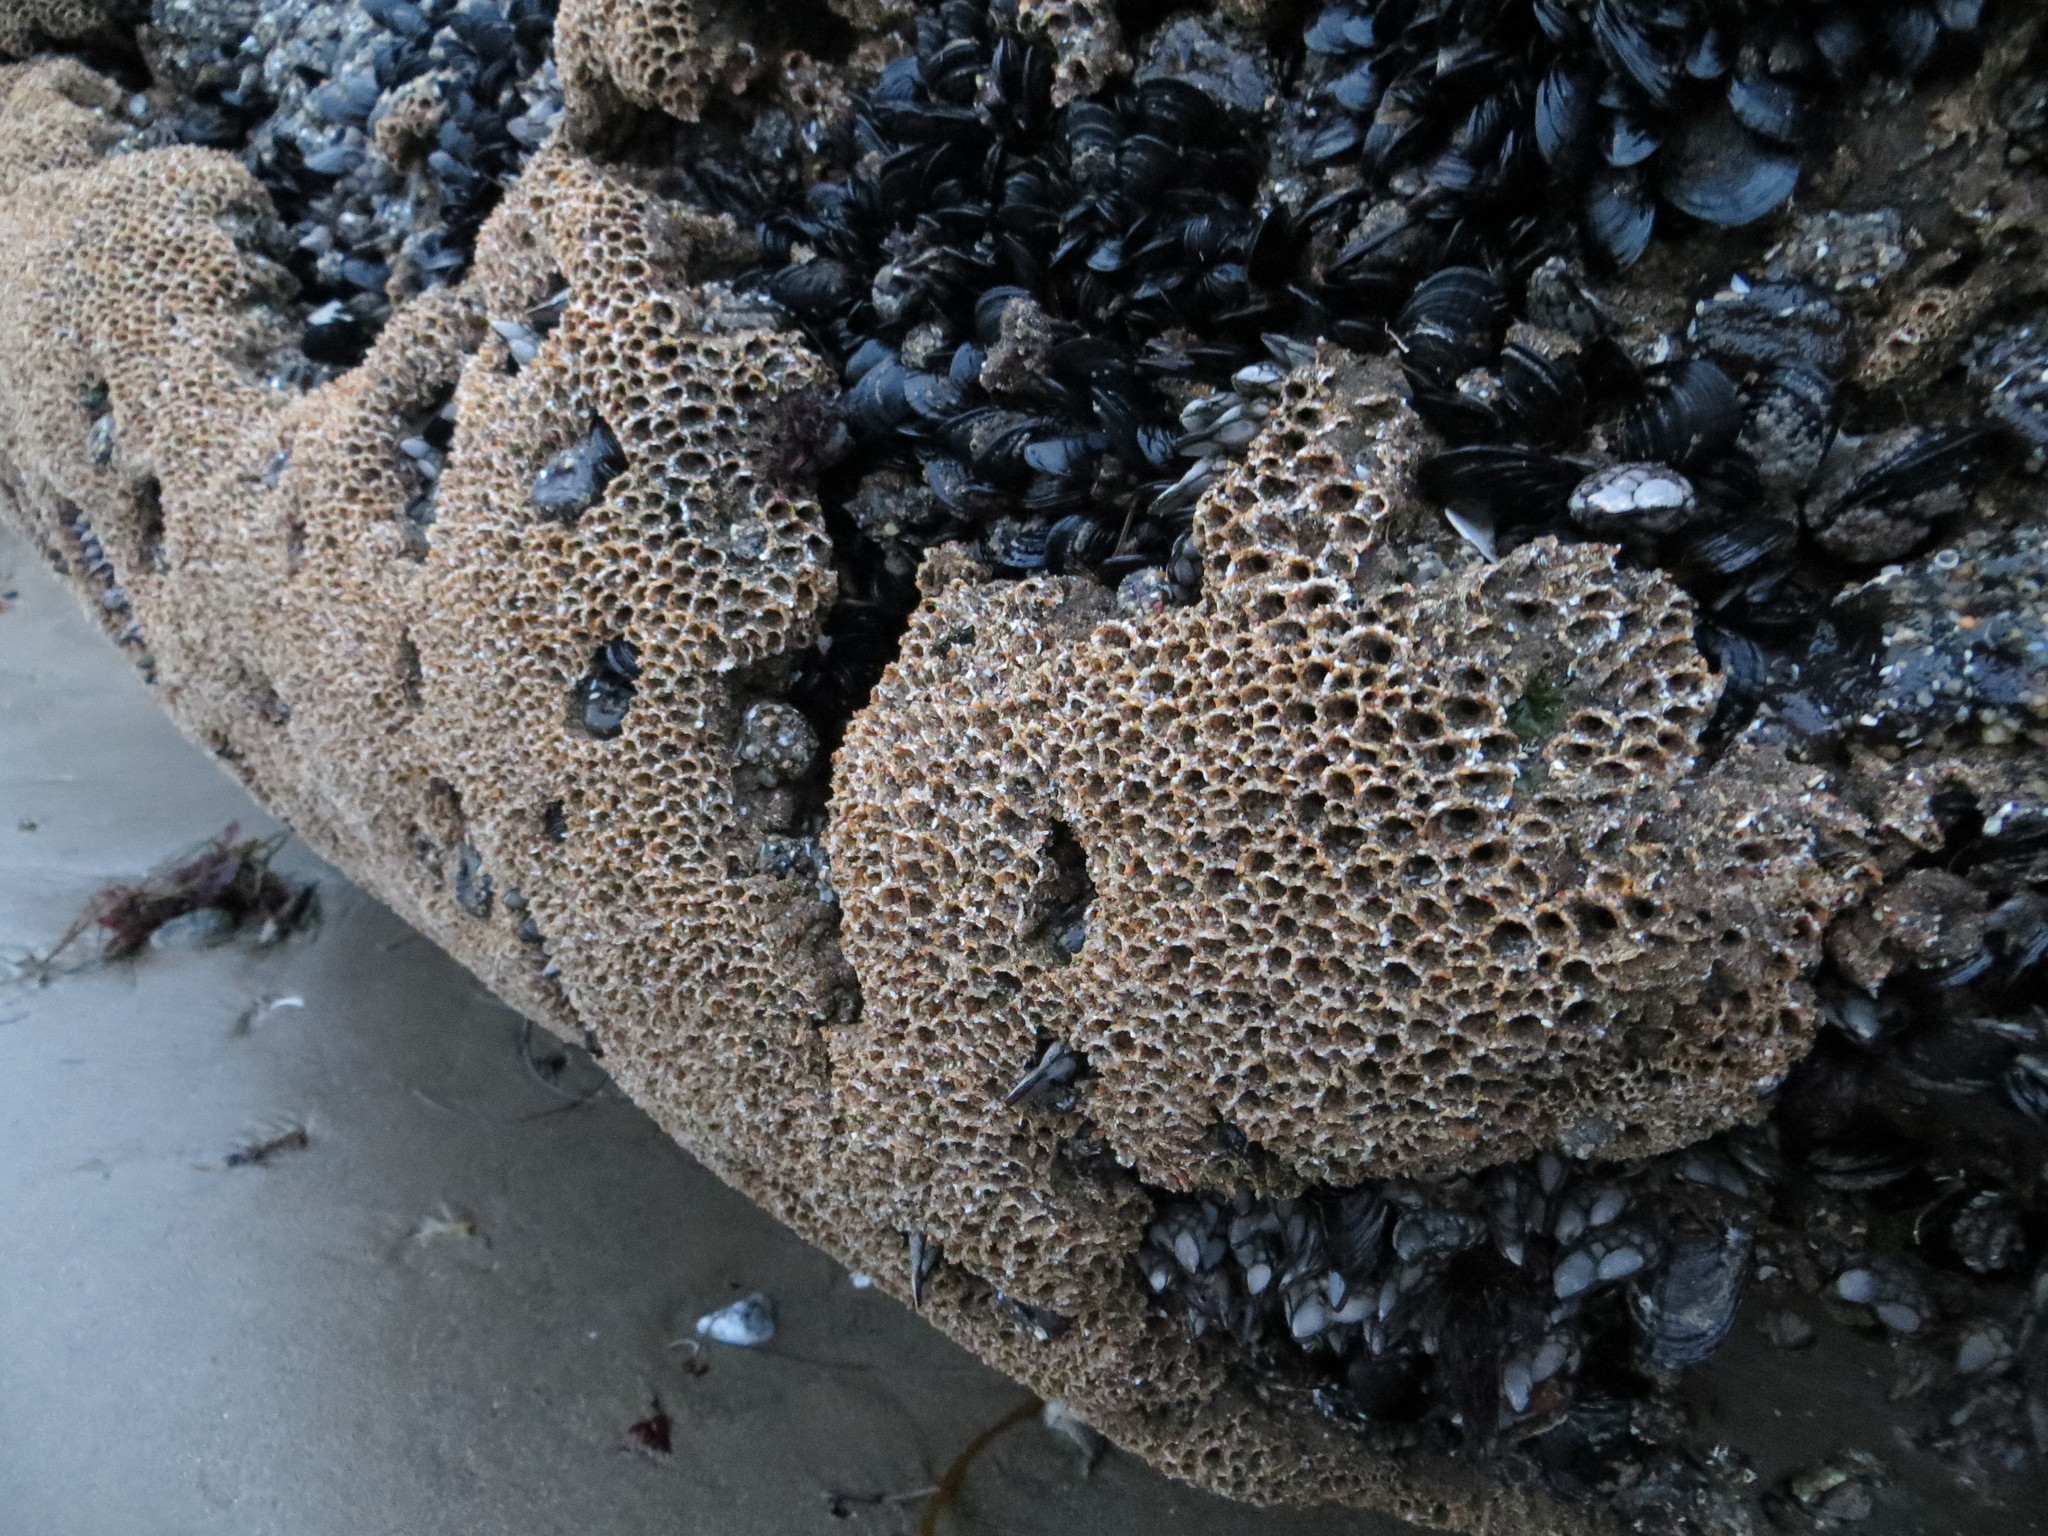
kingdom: Animalia
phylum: Annelida
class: Polychaeta
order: Sabellida
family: Sabellariidae
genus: Phragmatopoma
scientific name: Phragmatopoma californica
